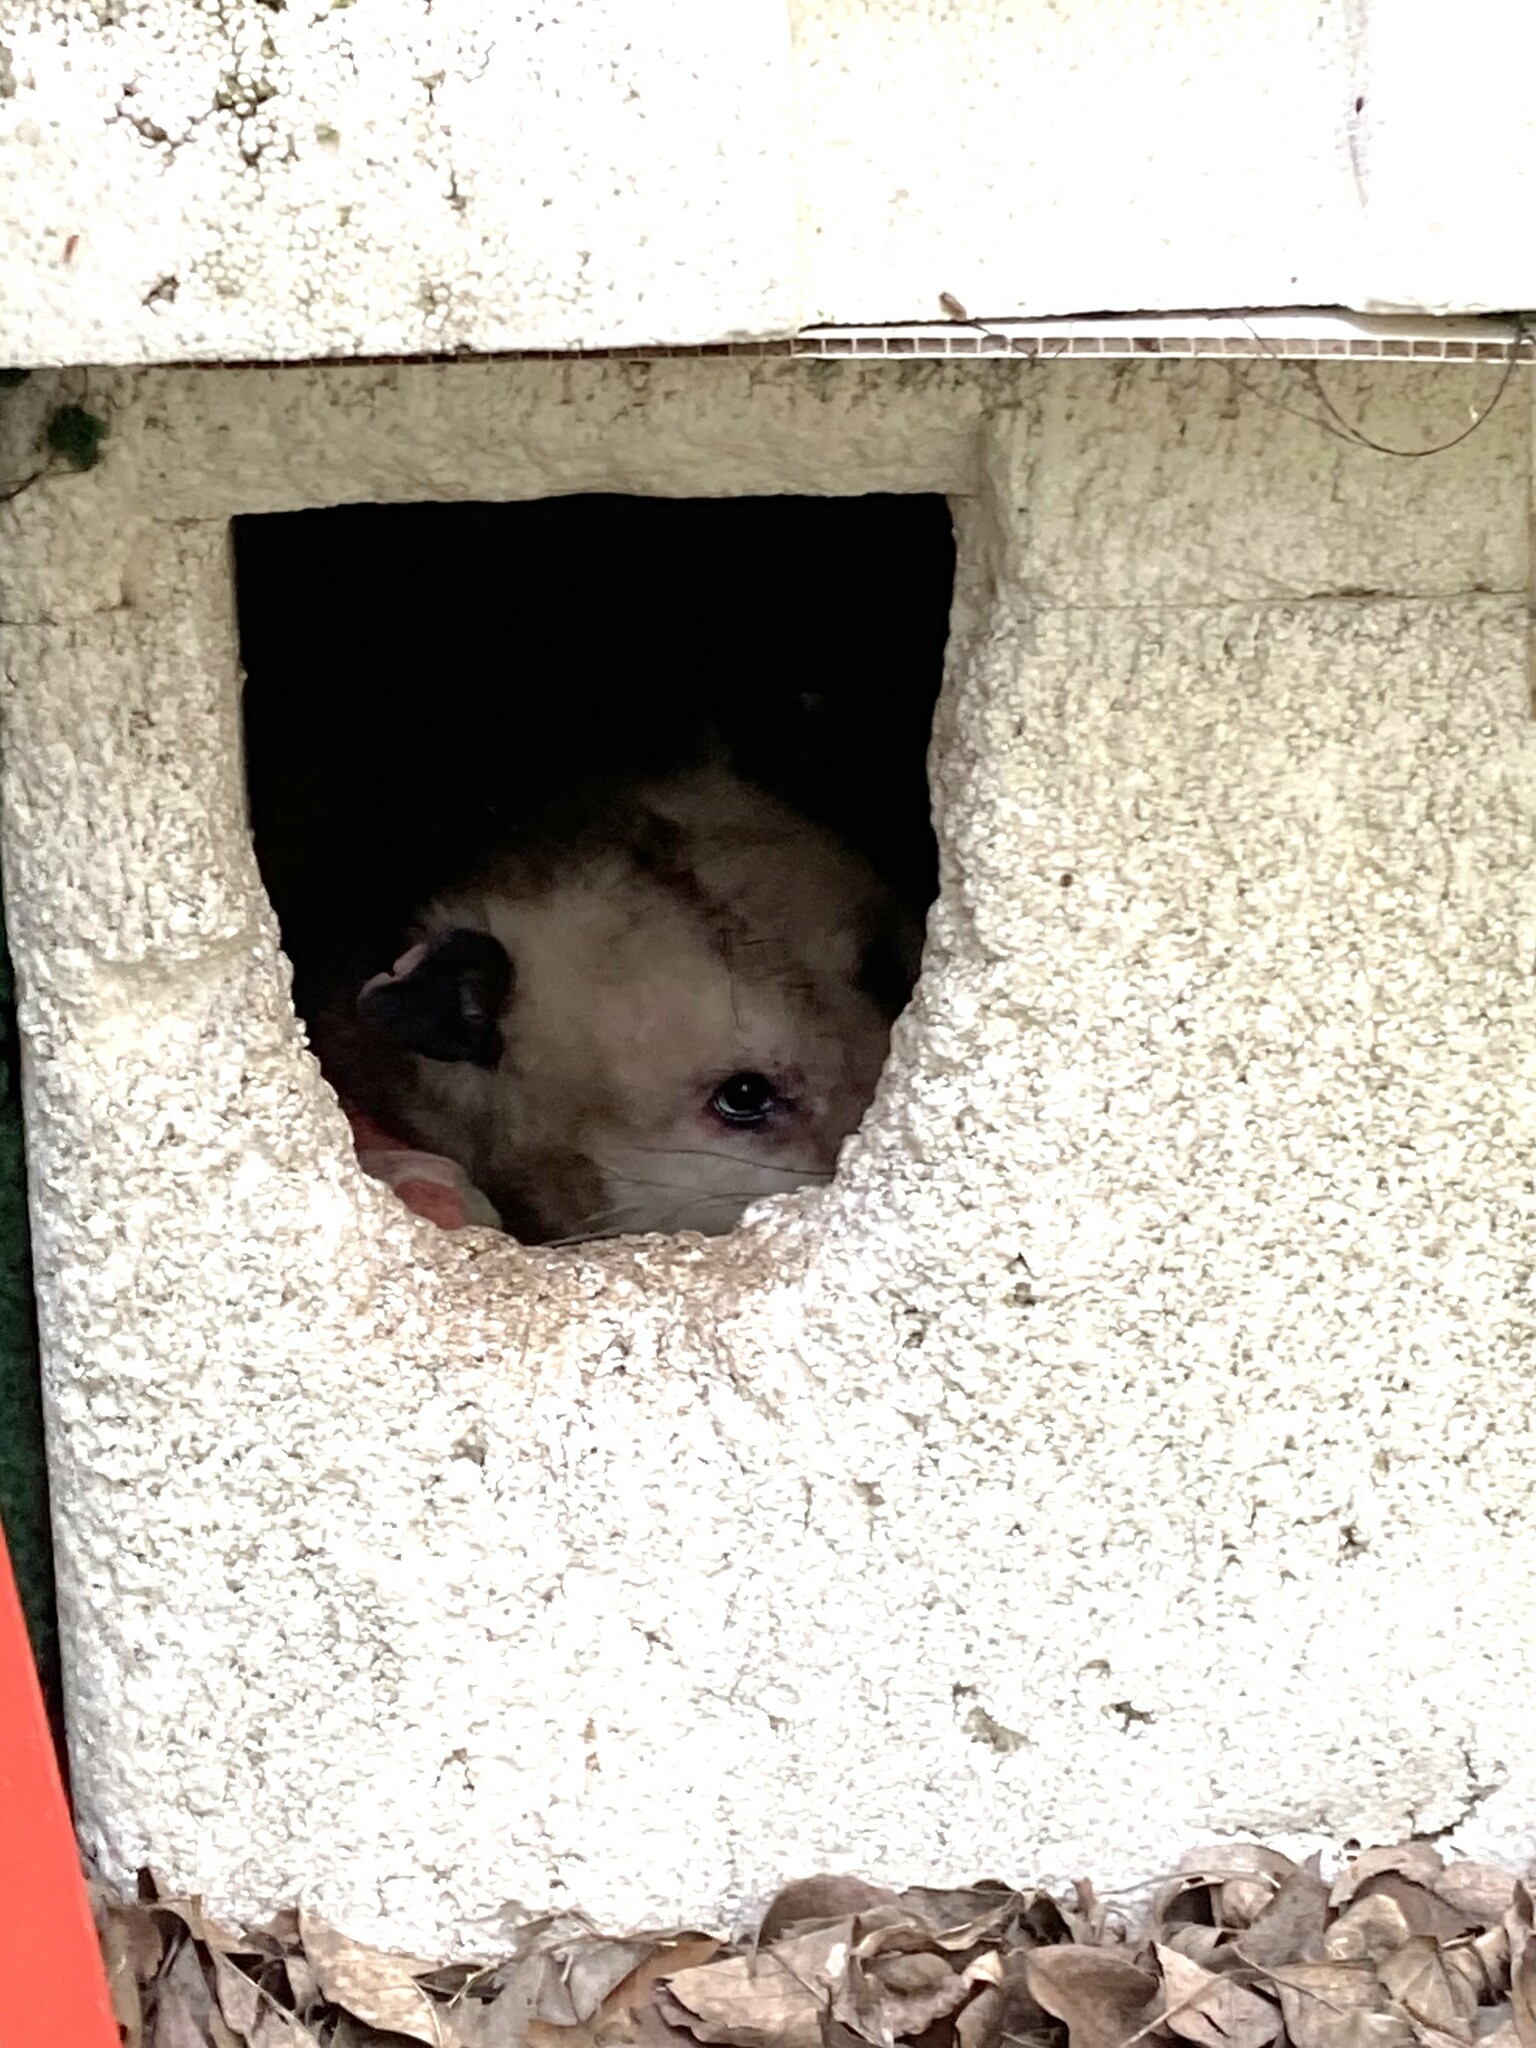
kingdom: Animalia
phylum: Chordata
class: Mammalia
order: Didelphimorphia
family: Didelphidae
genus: Didelphis
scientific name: Didelphis virginiana
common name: Virginia opossum
